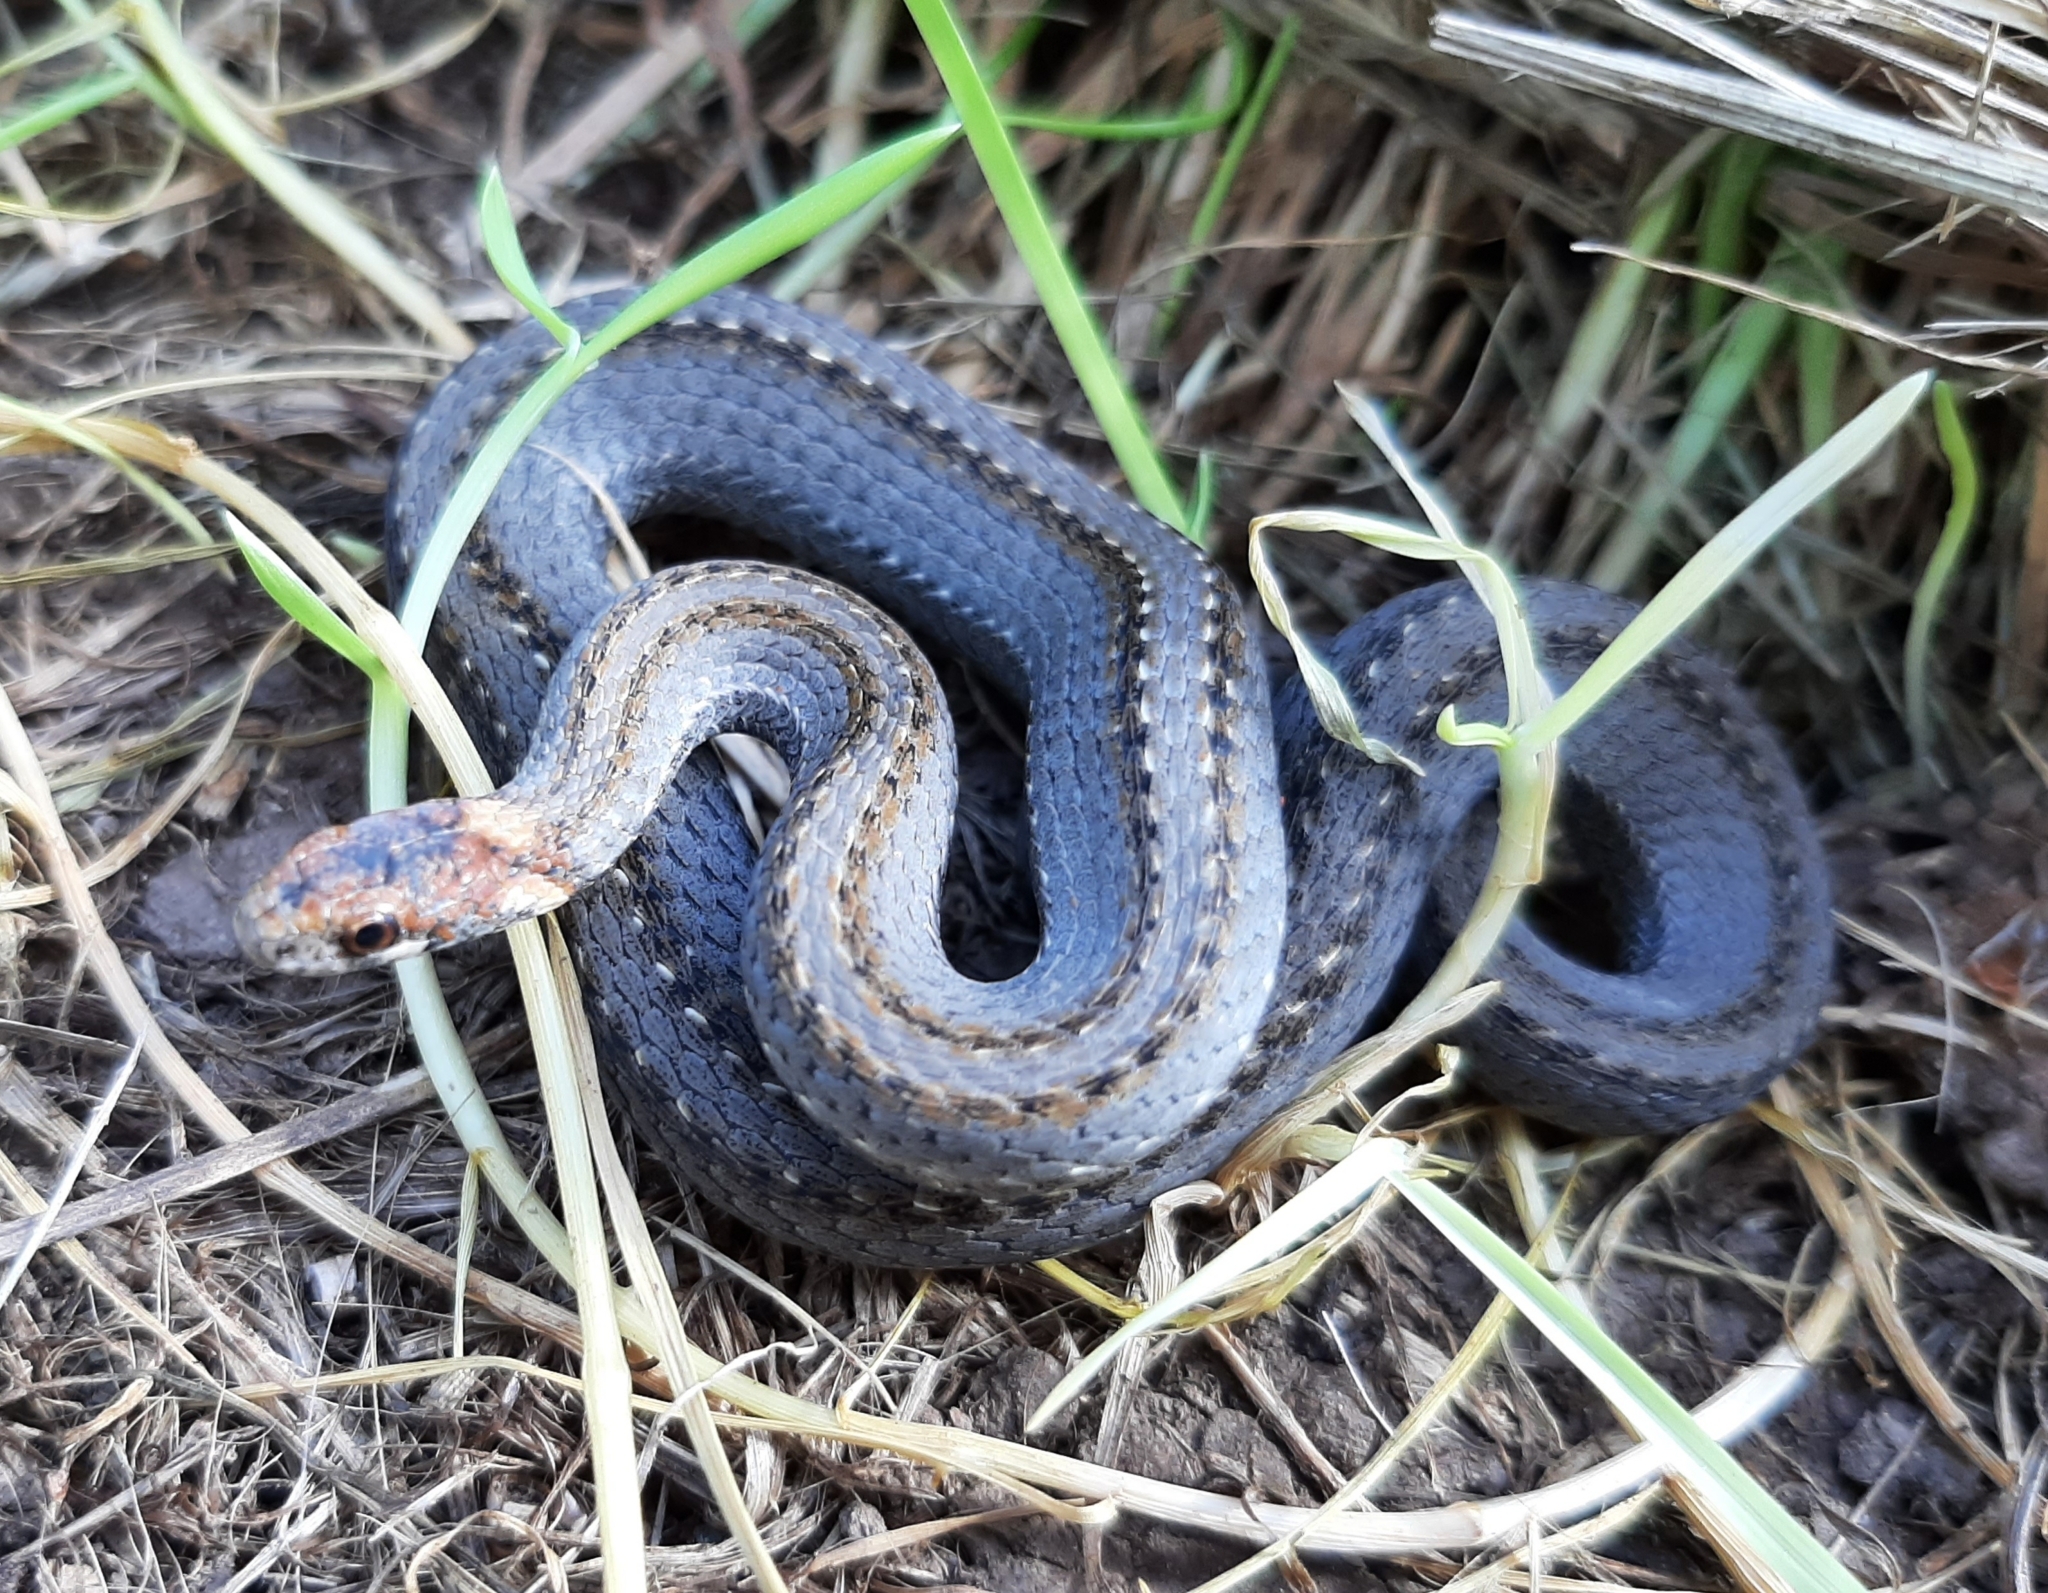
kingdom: Animalia
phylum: Chordata
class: Squamata
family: Colubridae
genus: Storeria
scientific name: Storeria occipitomaculata
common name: Redbelly snake
